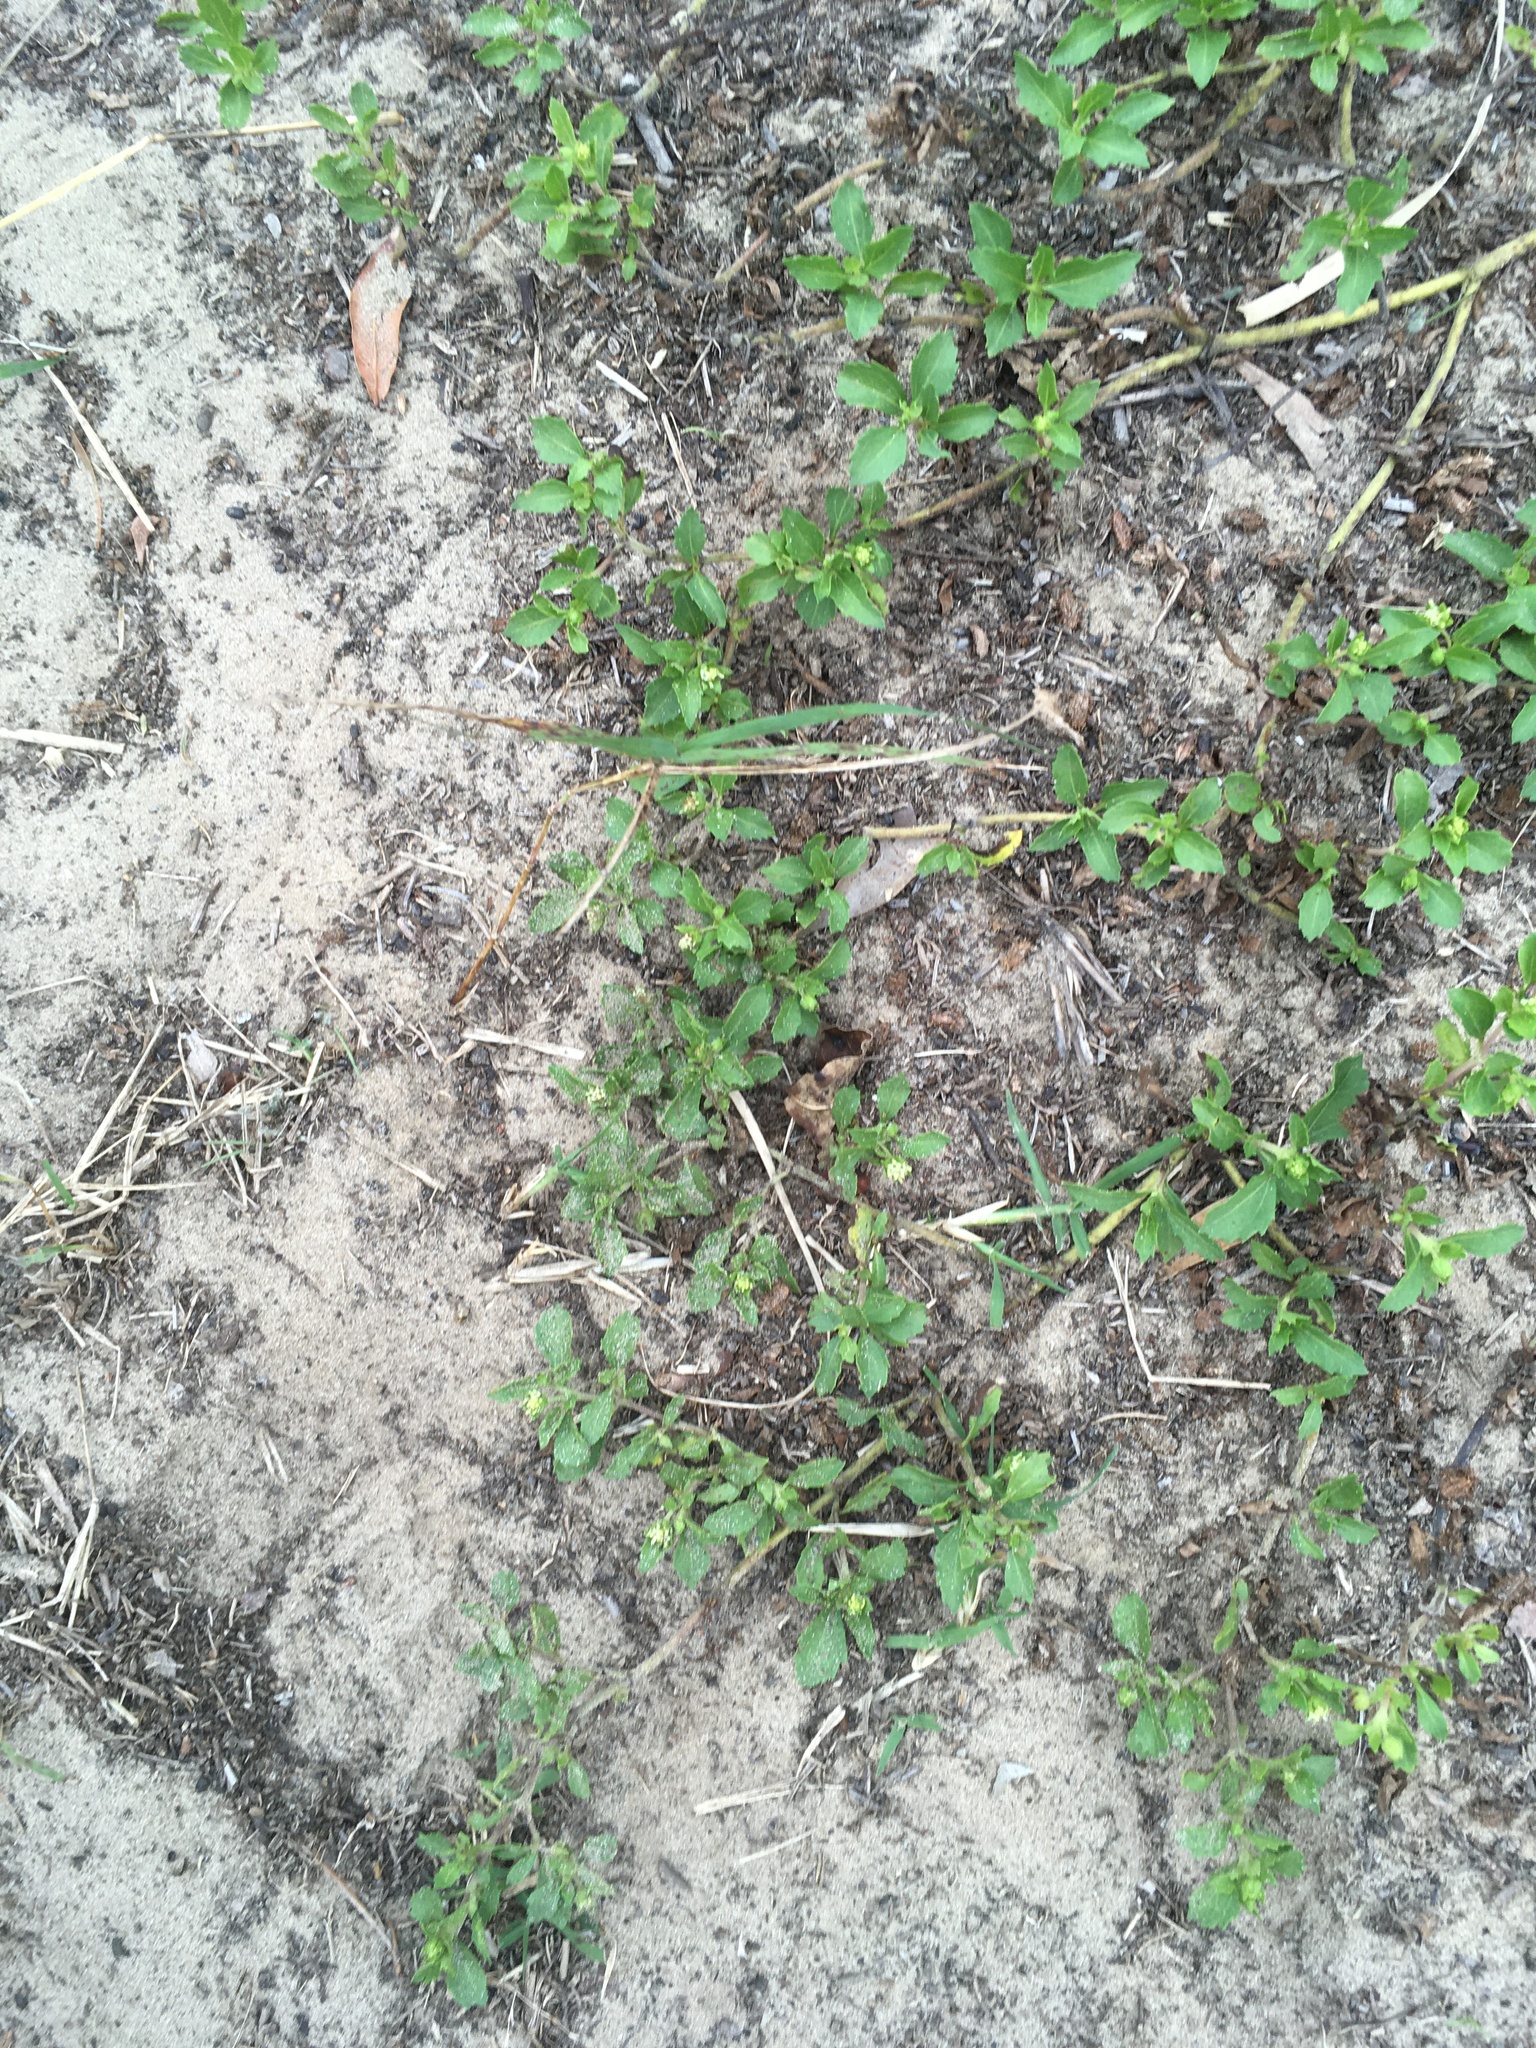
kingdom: Plantae
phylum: Tracheophyta
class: Magnoliopsida
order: Asterales
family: Asteraceae
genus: Acanthospermum
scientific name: Acanthospermum australe
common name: Paraguayan starbur
